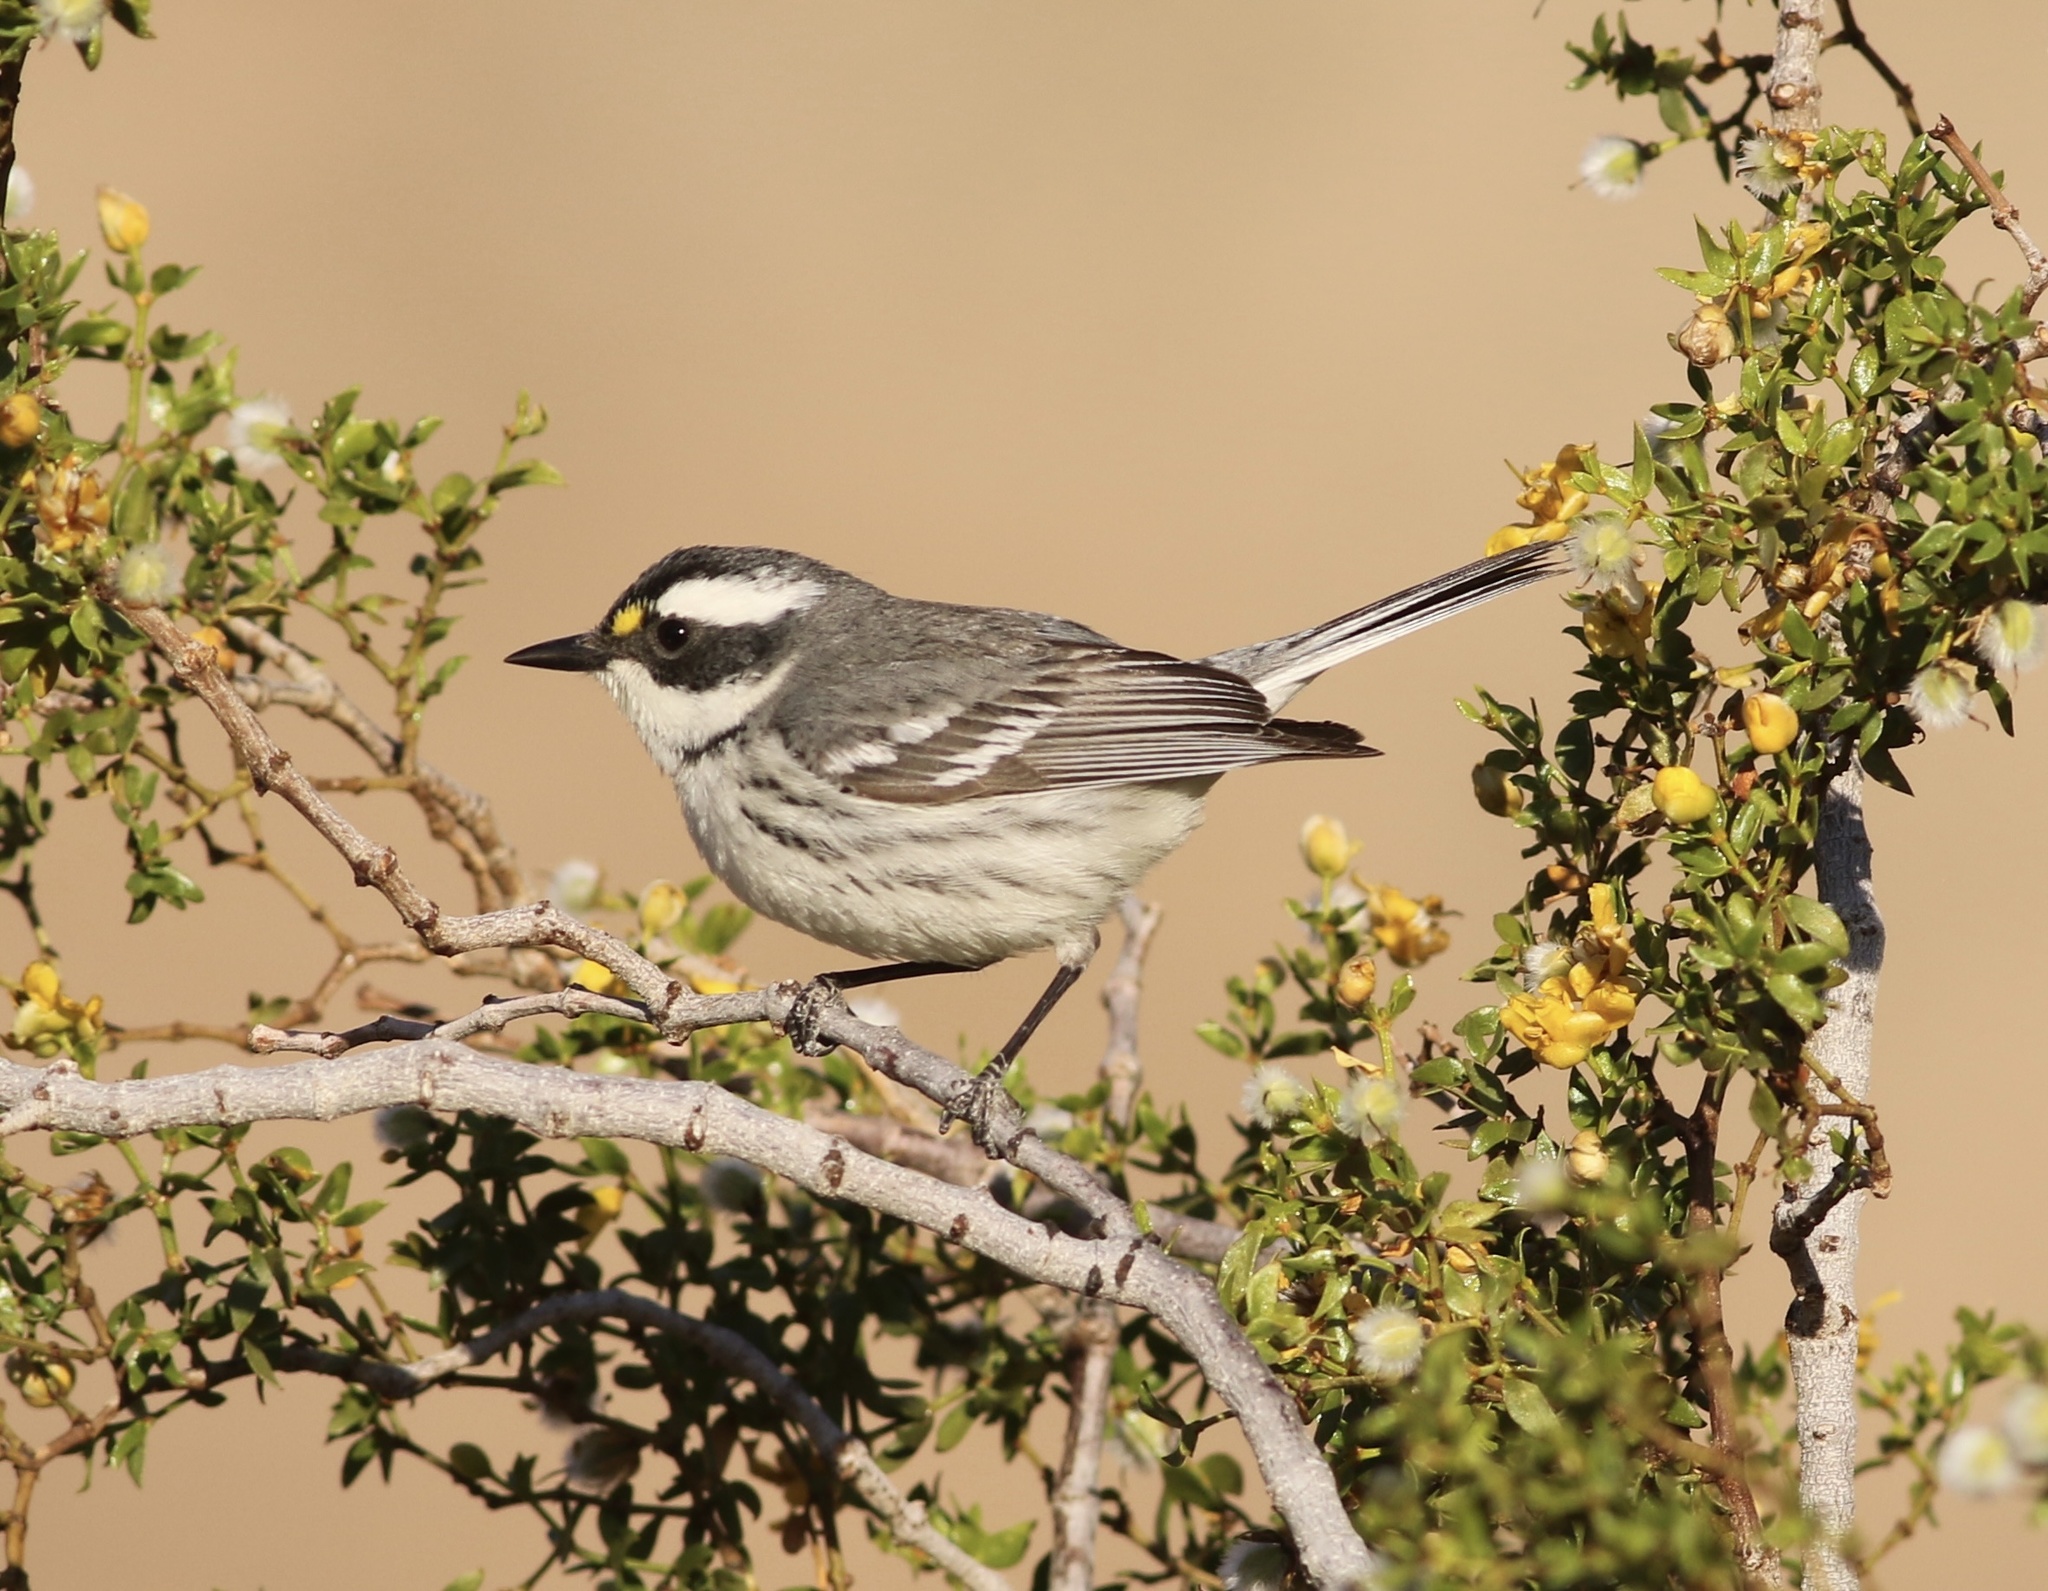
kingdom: Animalia
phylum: Chordata
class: Aves
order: Passeriformes
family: Parulidae
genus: Setophaga
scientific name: Setophaga nigrescens
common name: Black-throated gray warbler
